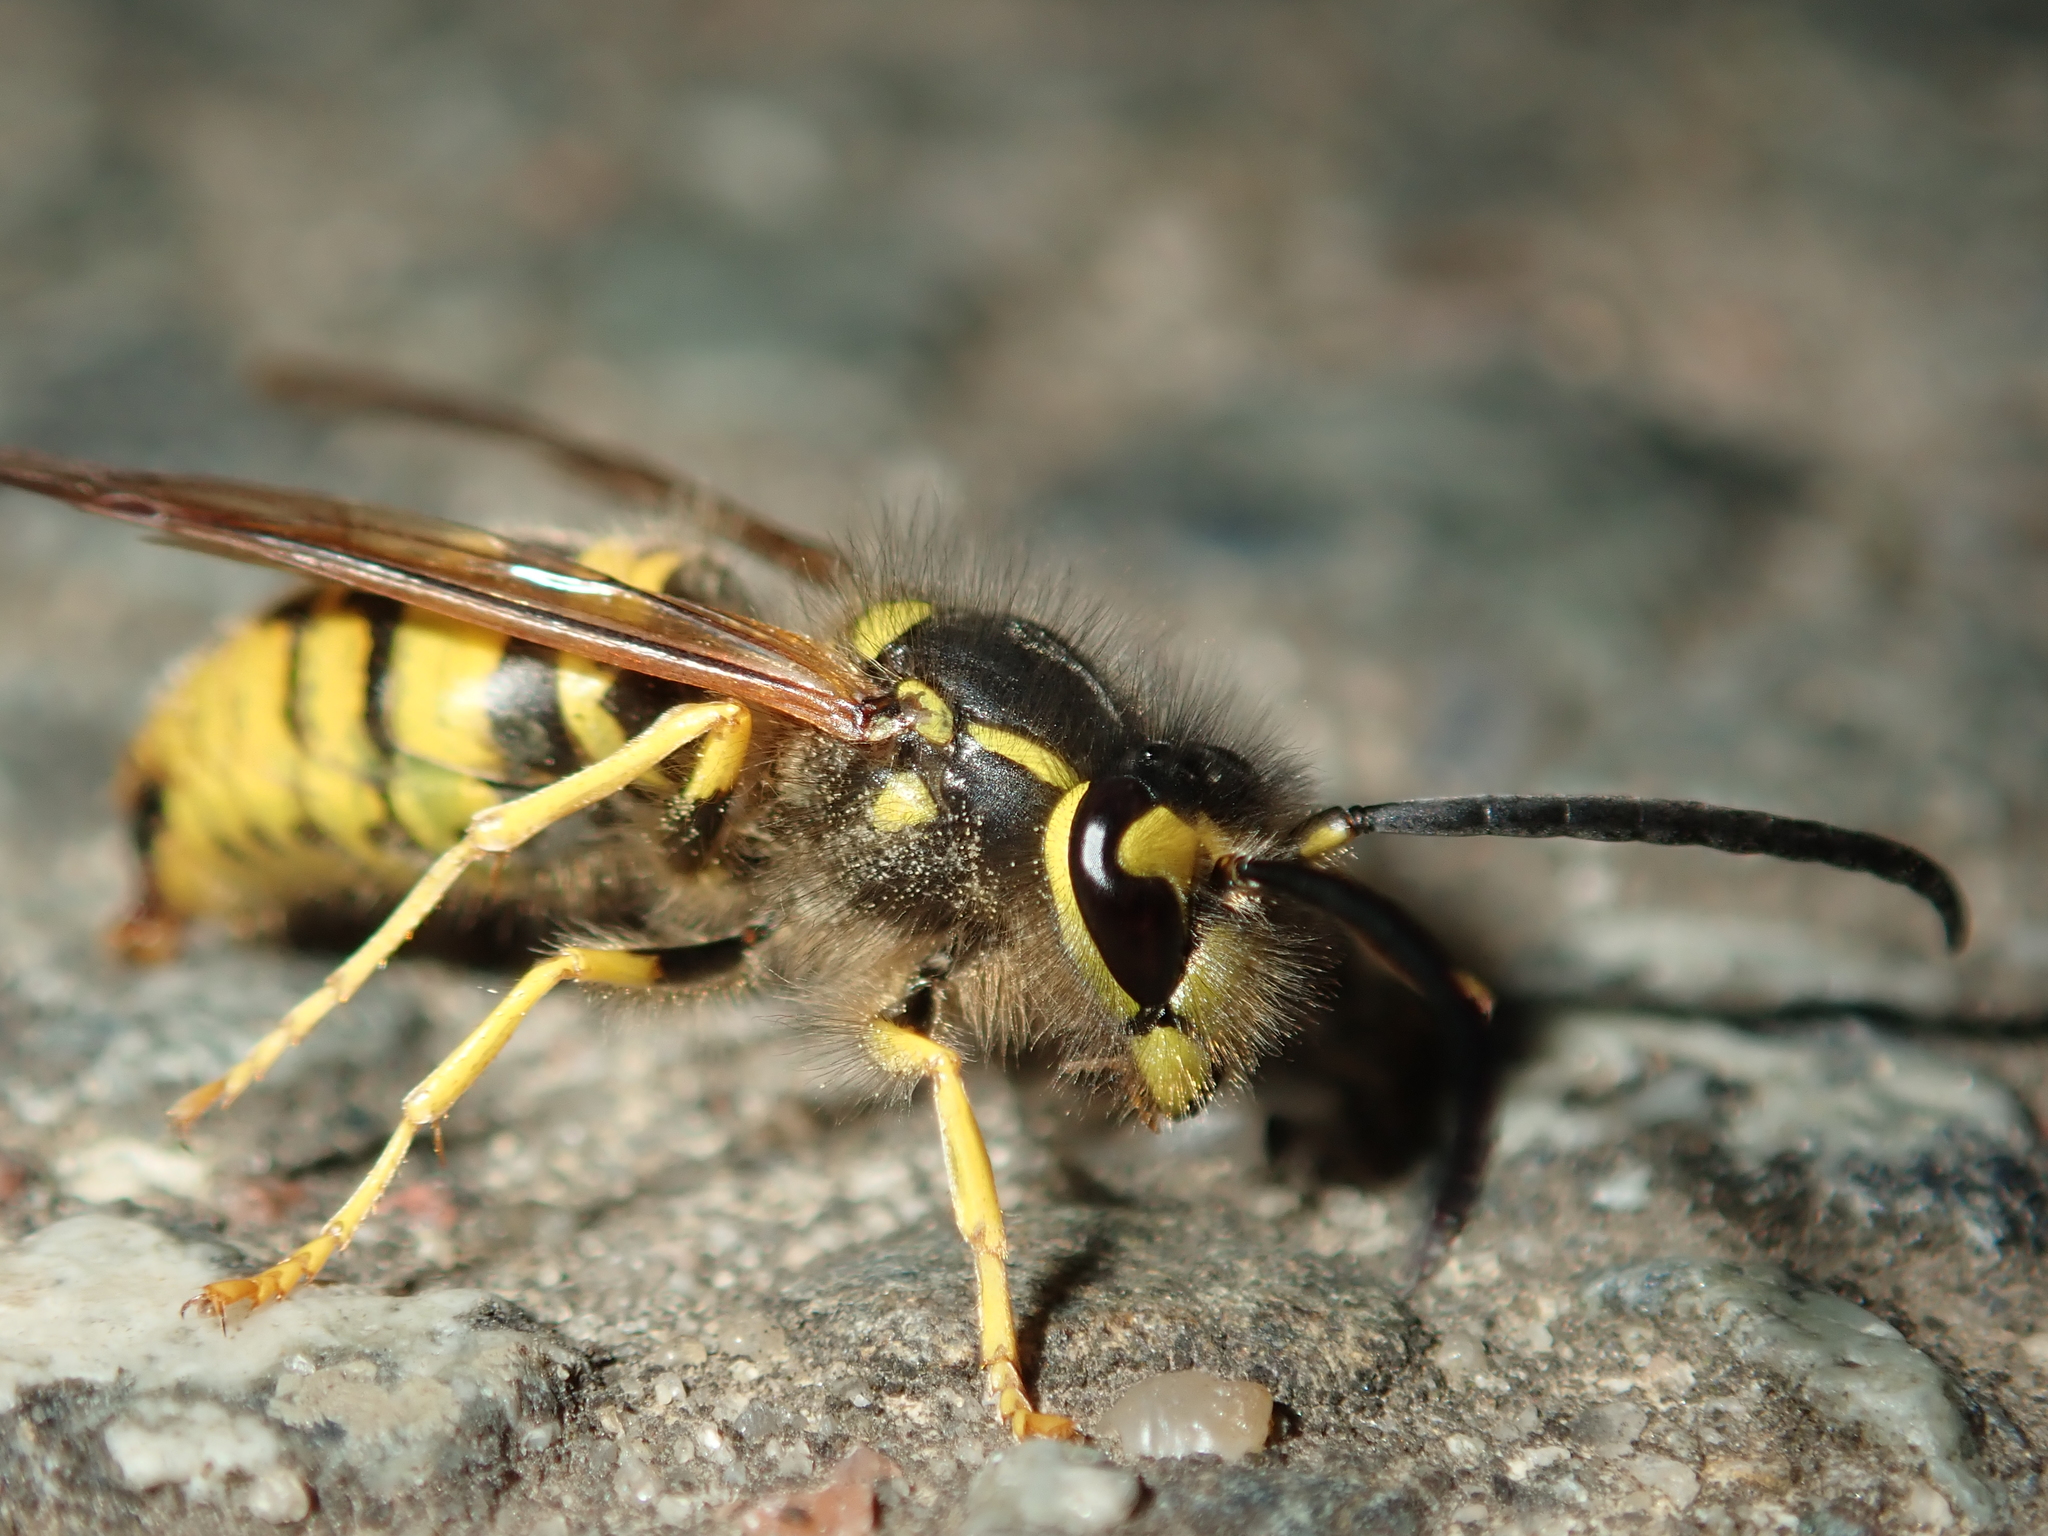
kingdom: Animalia
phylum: Arthropoda
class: Insecta
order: Hymenoptera
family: Vespidae
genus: Vespula
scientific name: Vespula germanica
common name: German wasp
